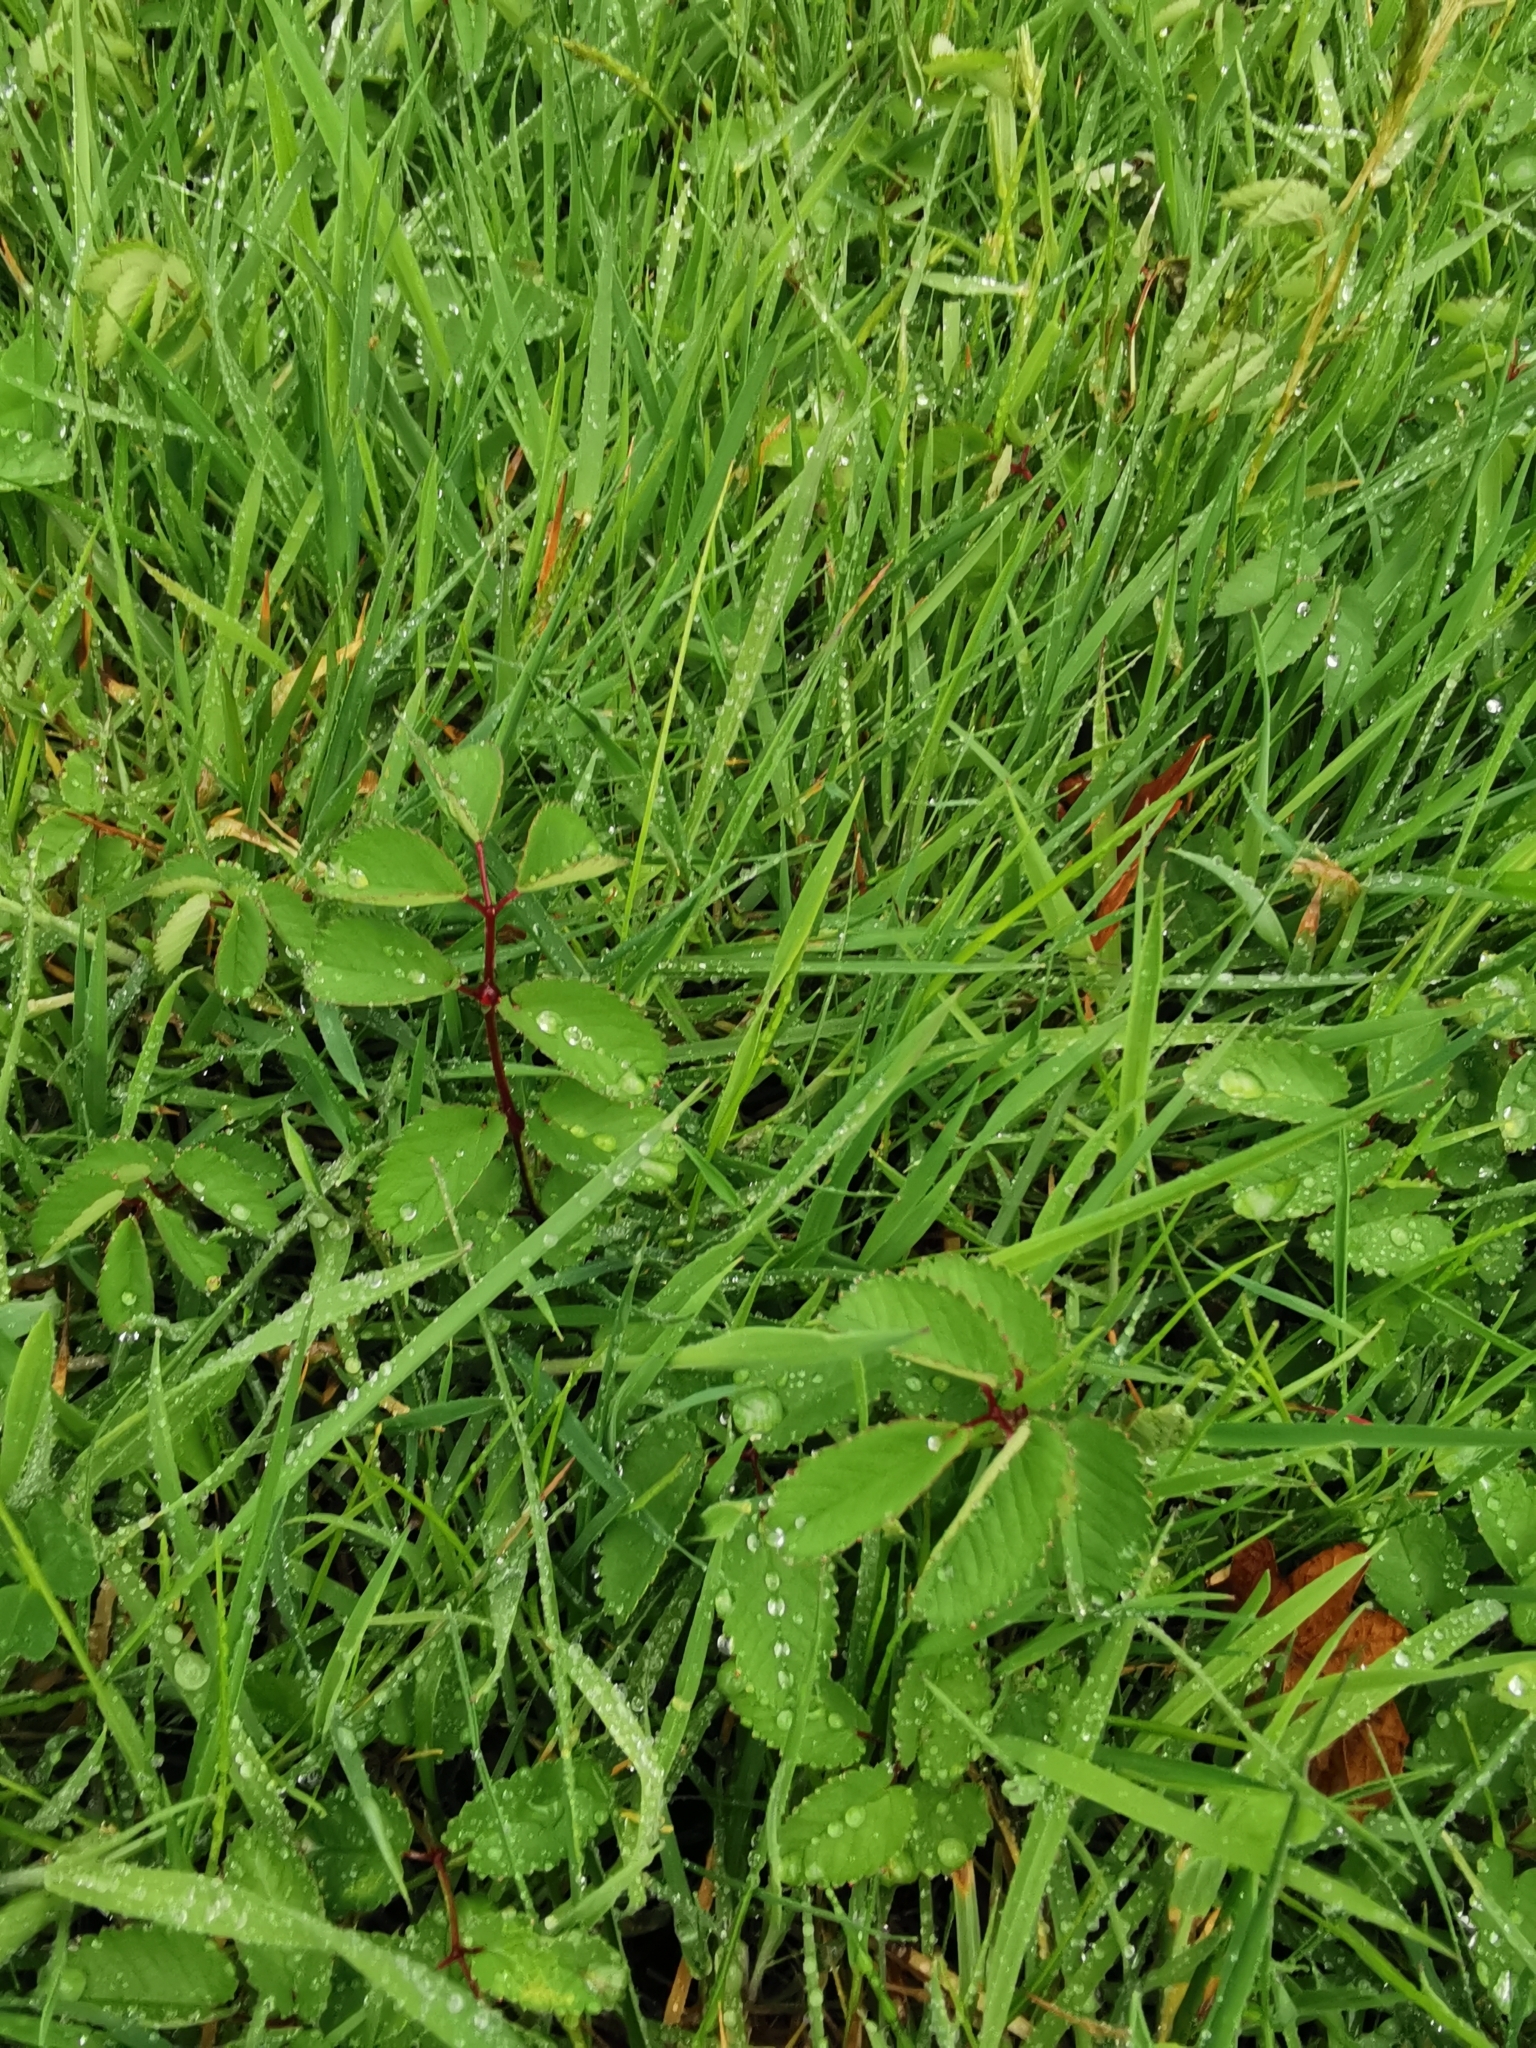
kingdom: Plantae
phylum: Tracheophyta
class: Magnoliopsida
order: Rosales
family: Rosaceae
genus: Sanguisorba
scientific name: Sanguisorba officinalis
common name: Great burnet
